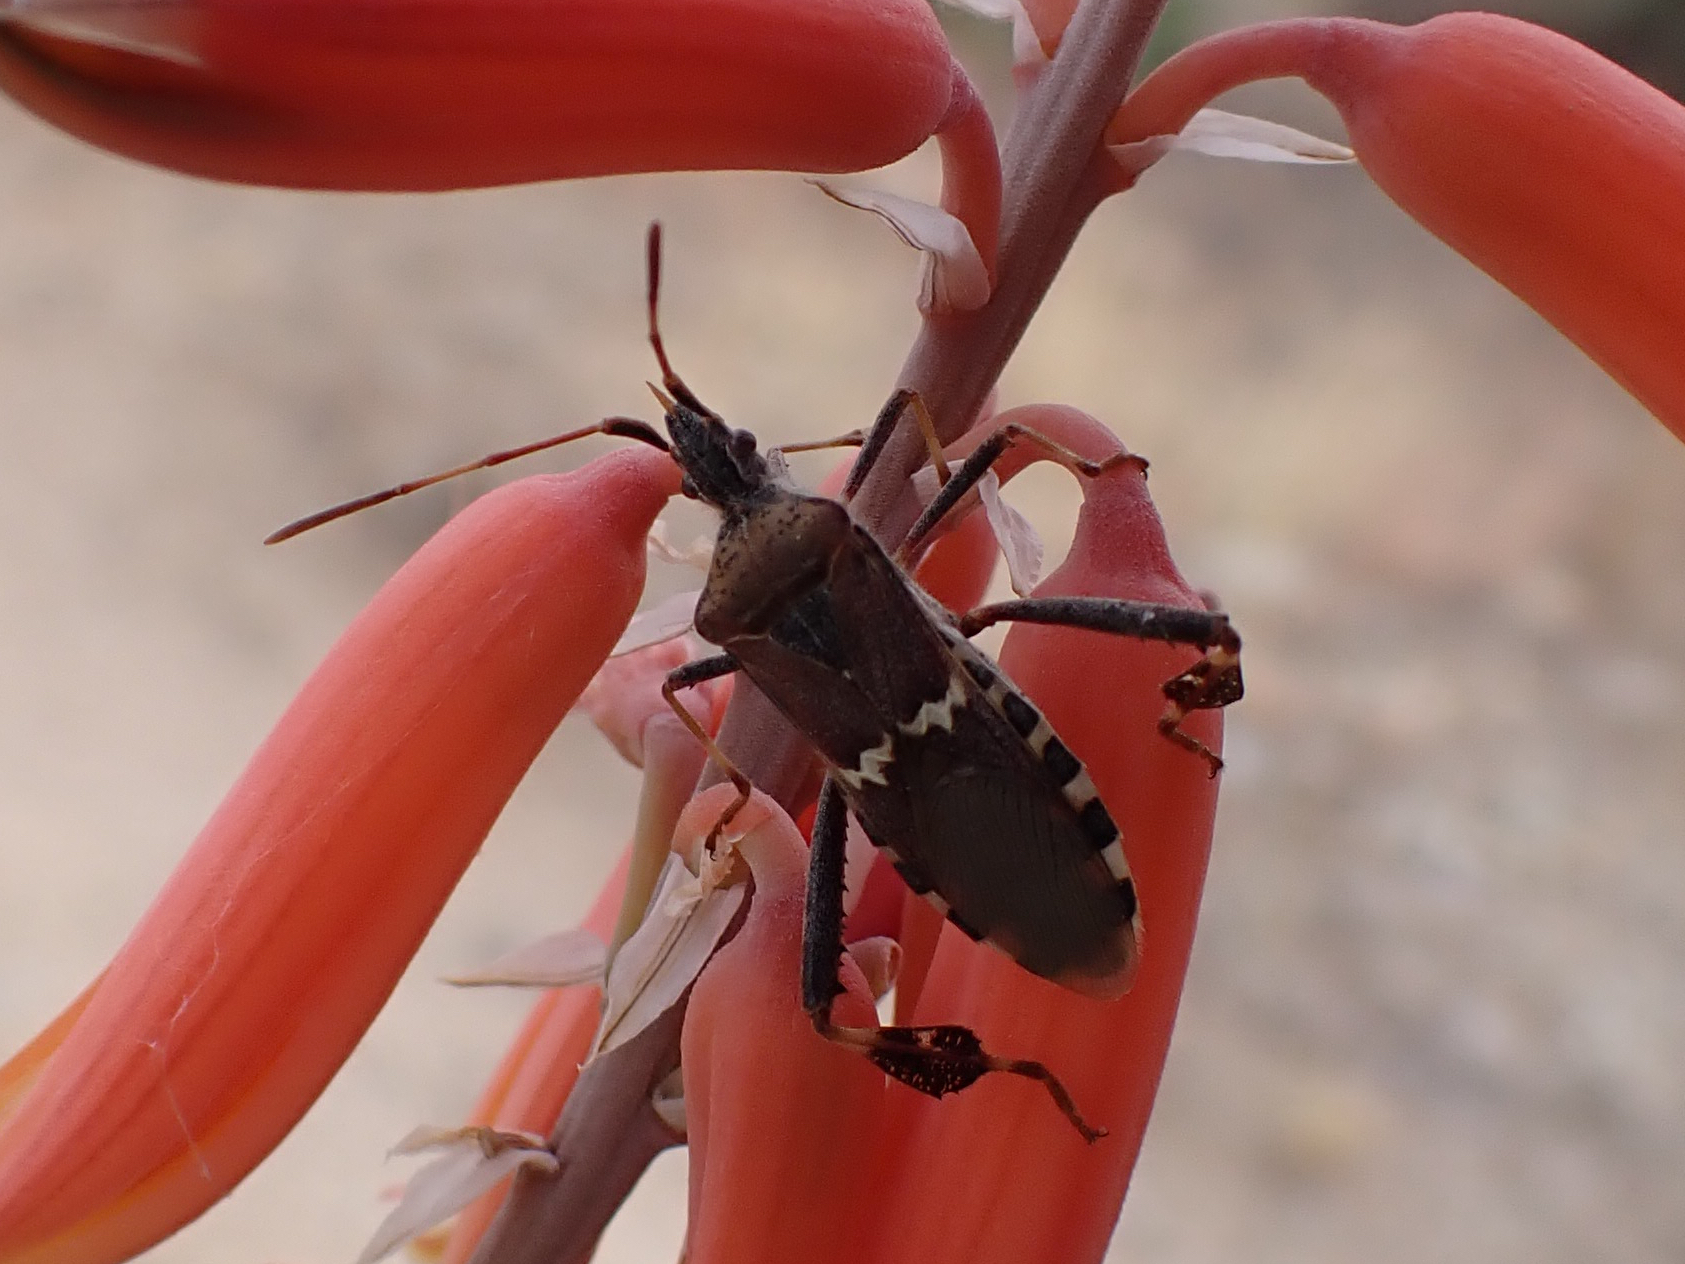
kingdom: Animalia
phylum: Arthropoda
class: Insecta
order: Hemiptera
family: Coreidae
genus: Leptoglossus
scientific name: Leptoglossus clypealis
